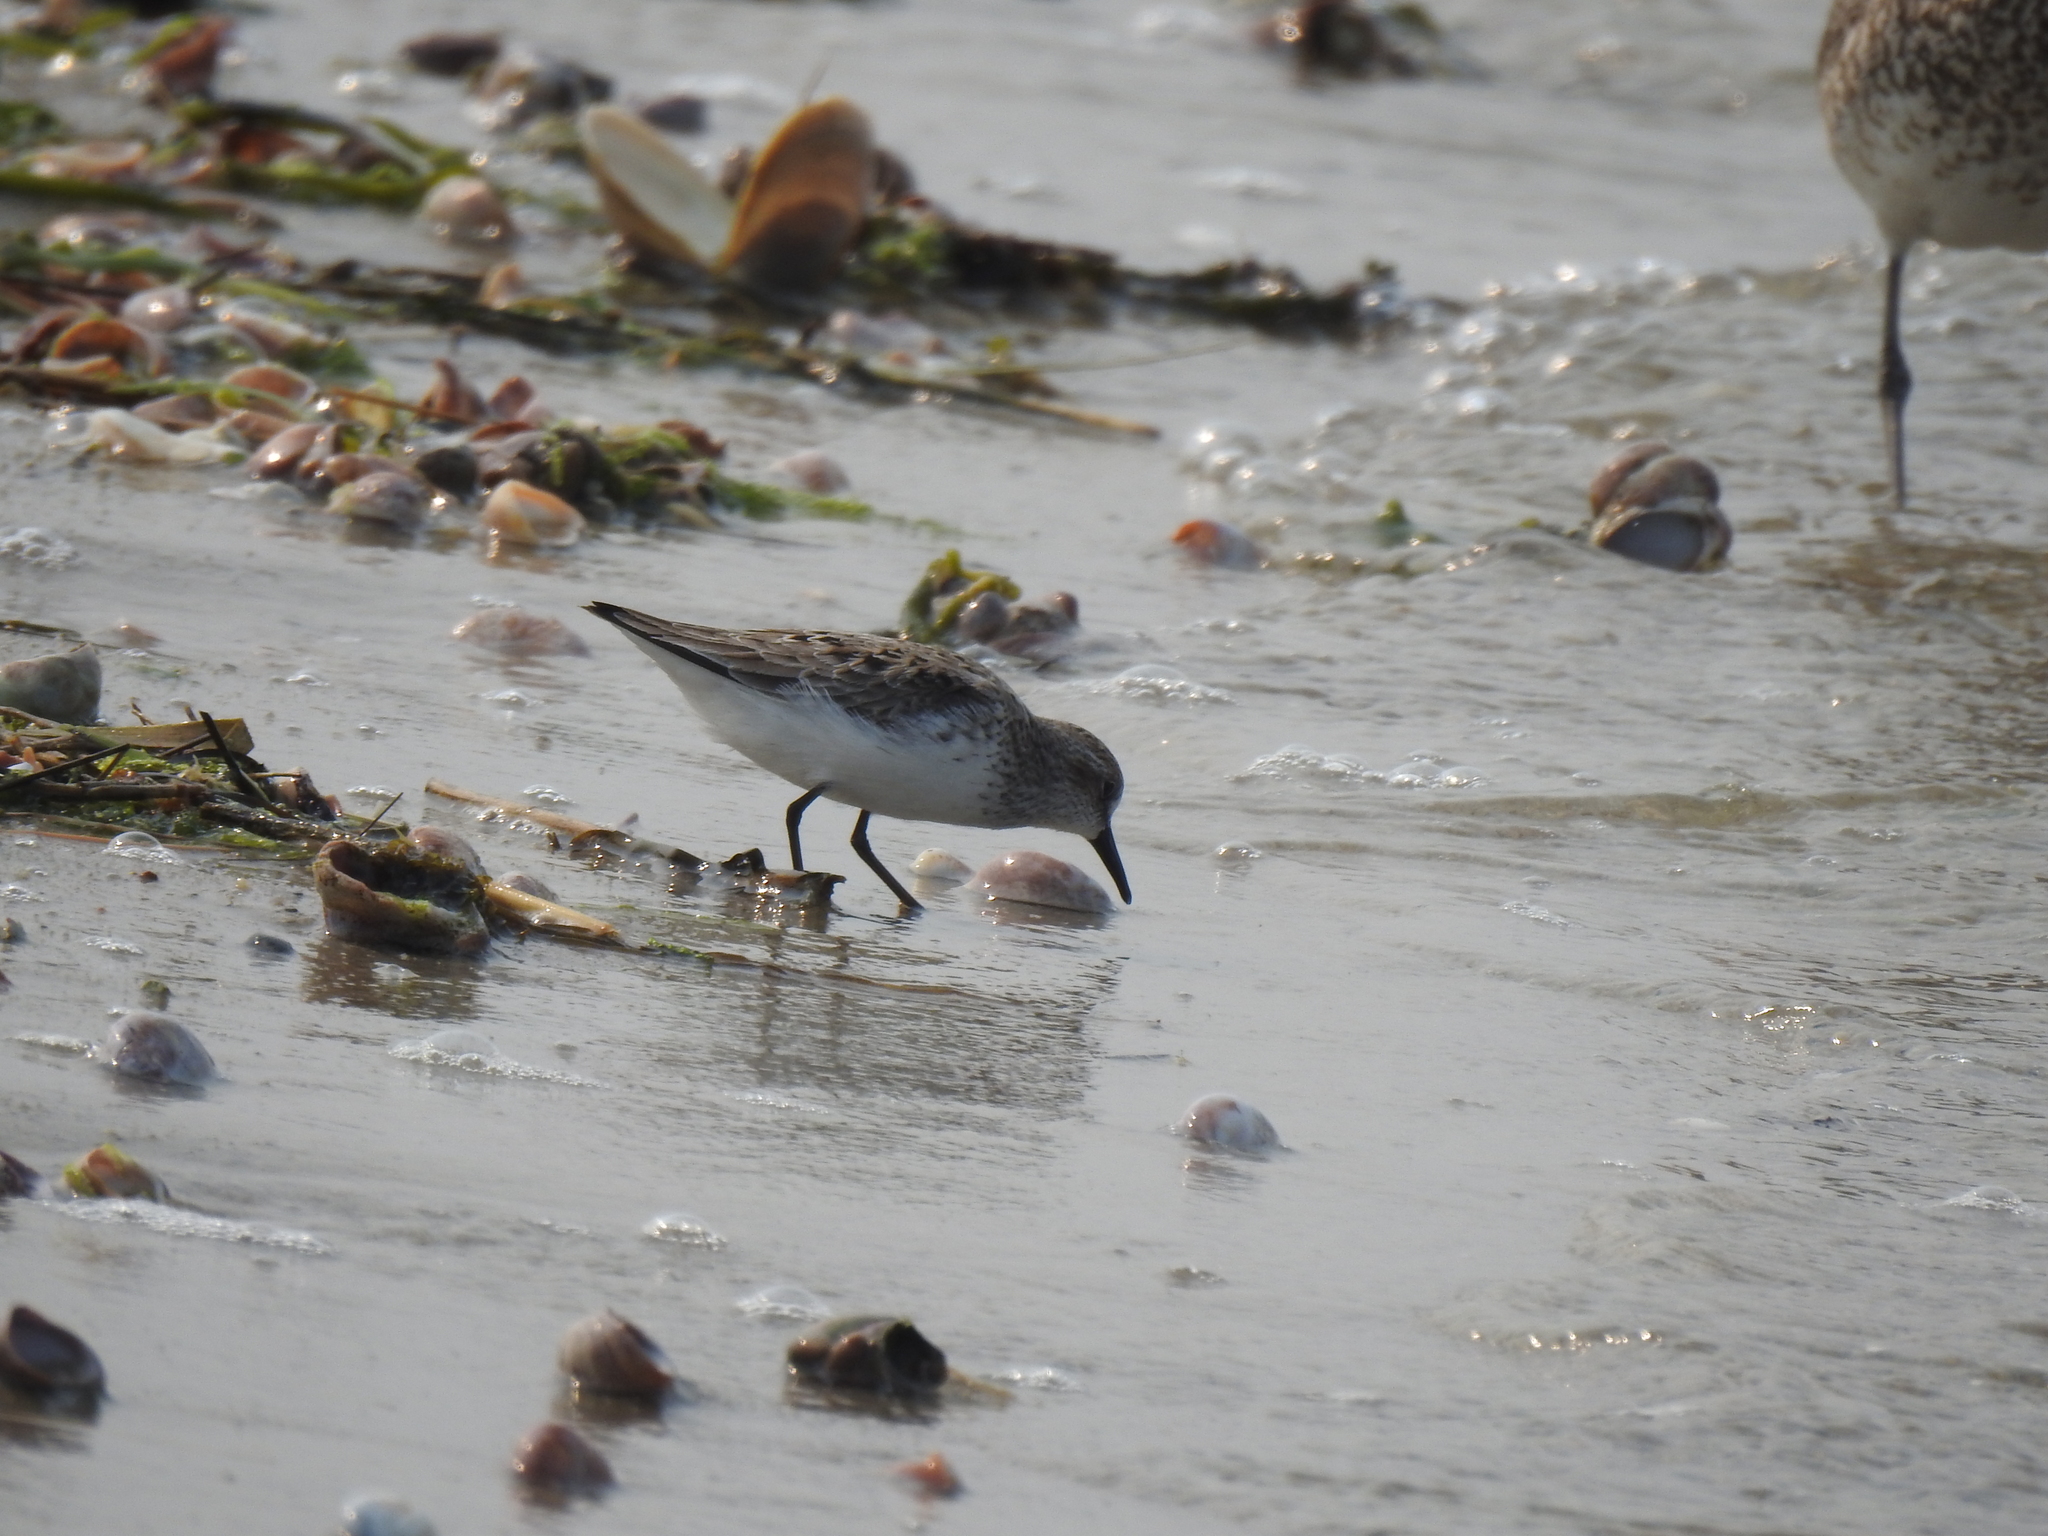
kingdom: Animalia
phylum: Chordata
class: Aves
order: Charadriiformes
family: Scolopacidae
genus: Calidris
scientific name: Calidris pusilla
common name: Semipalmated sandpiper
